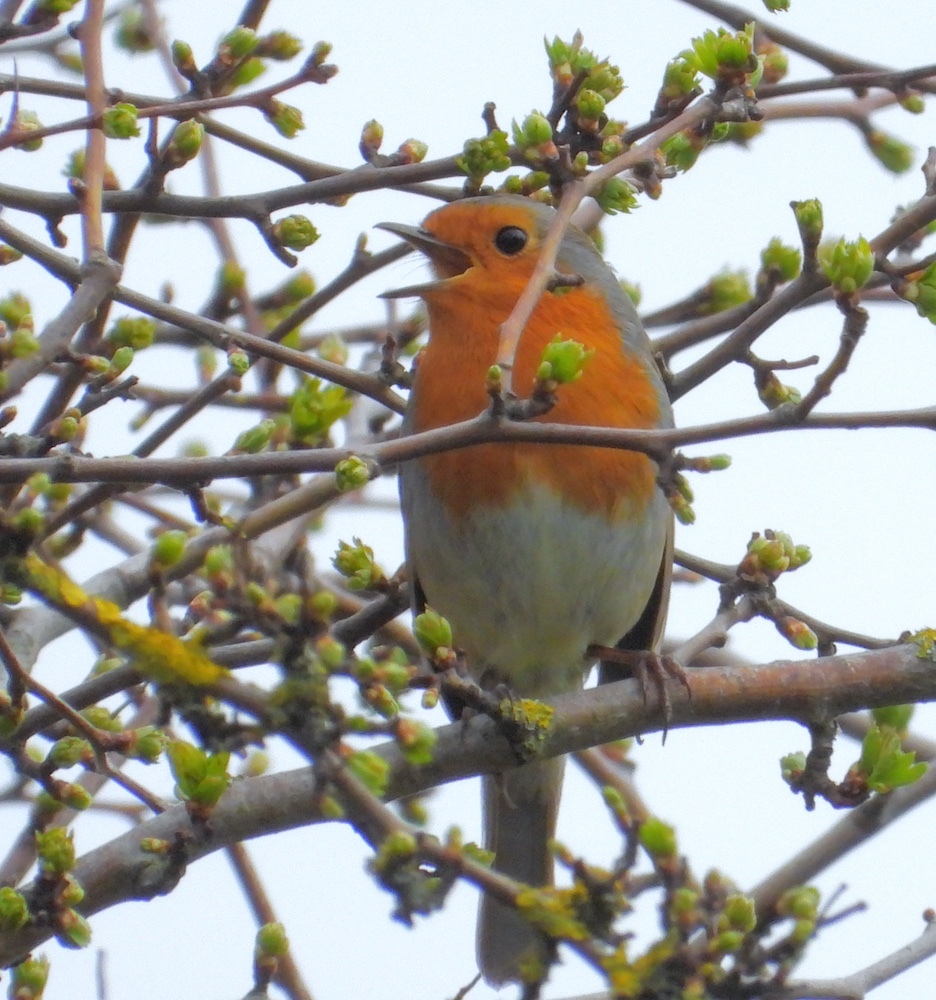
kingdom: Animalia
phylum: Chordata
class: Aves
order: Passeriformes
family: Muscicapidae
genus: Erithacus
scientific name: Erithacus rubecula
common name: European robin
